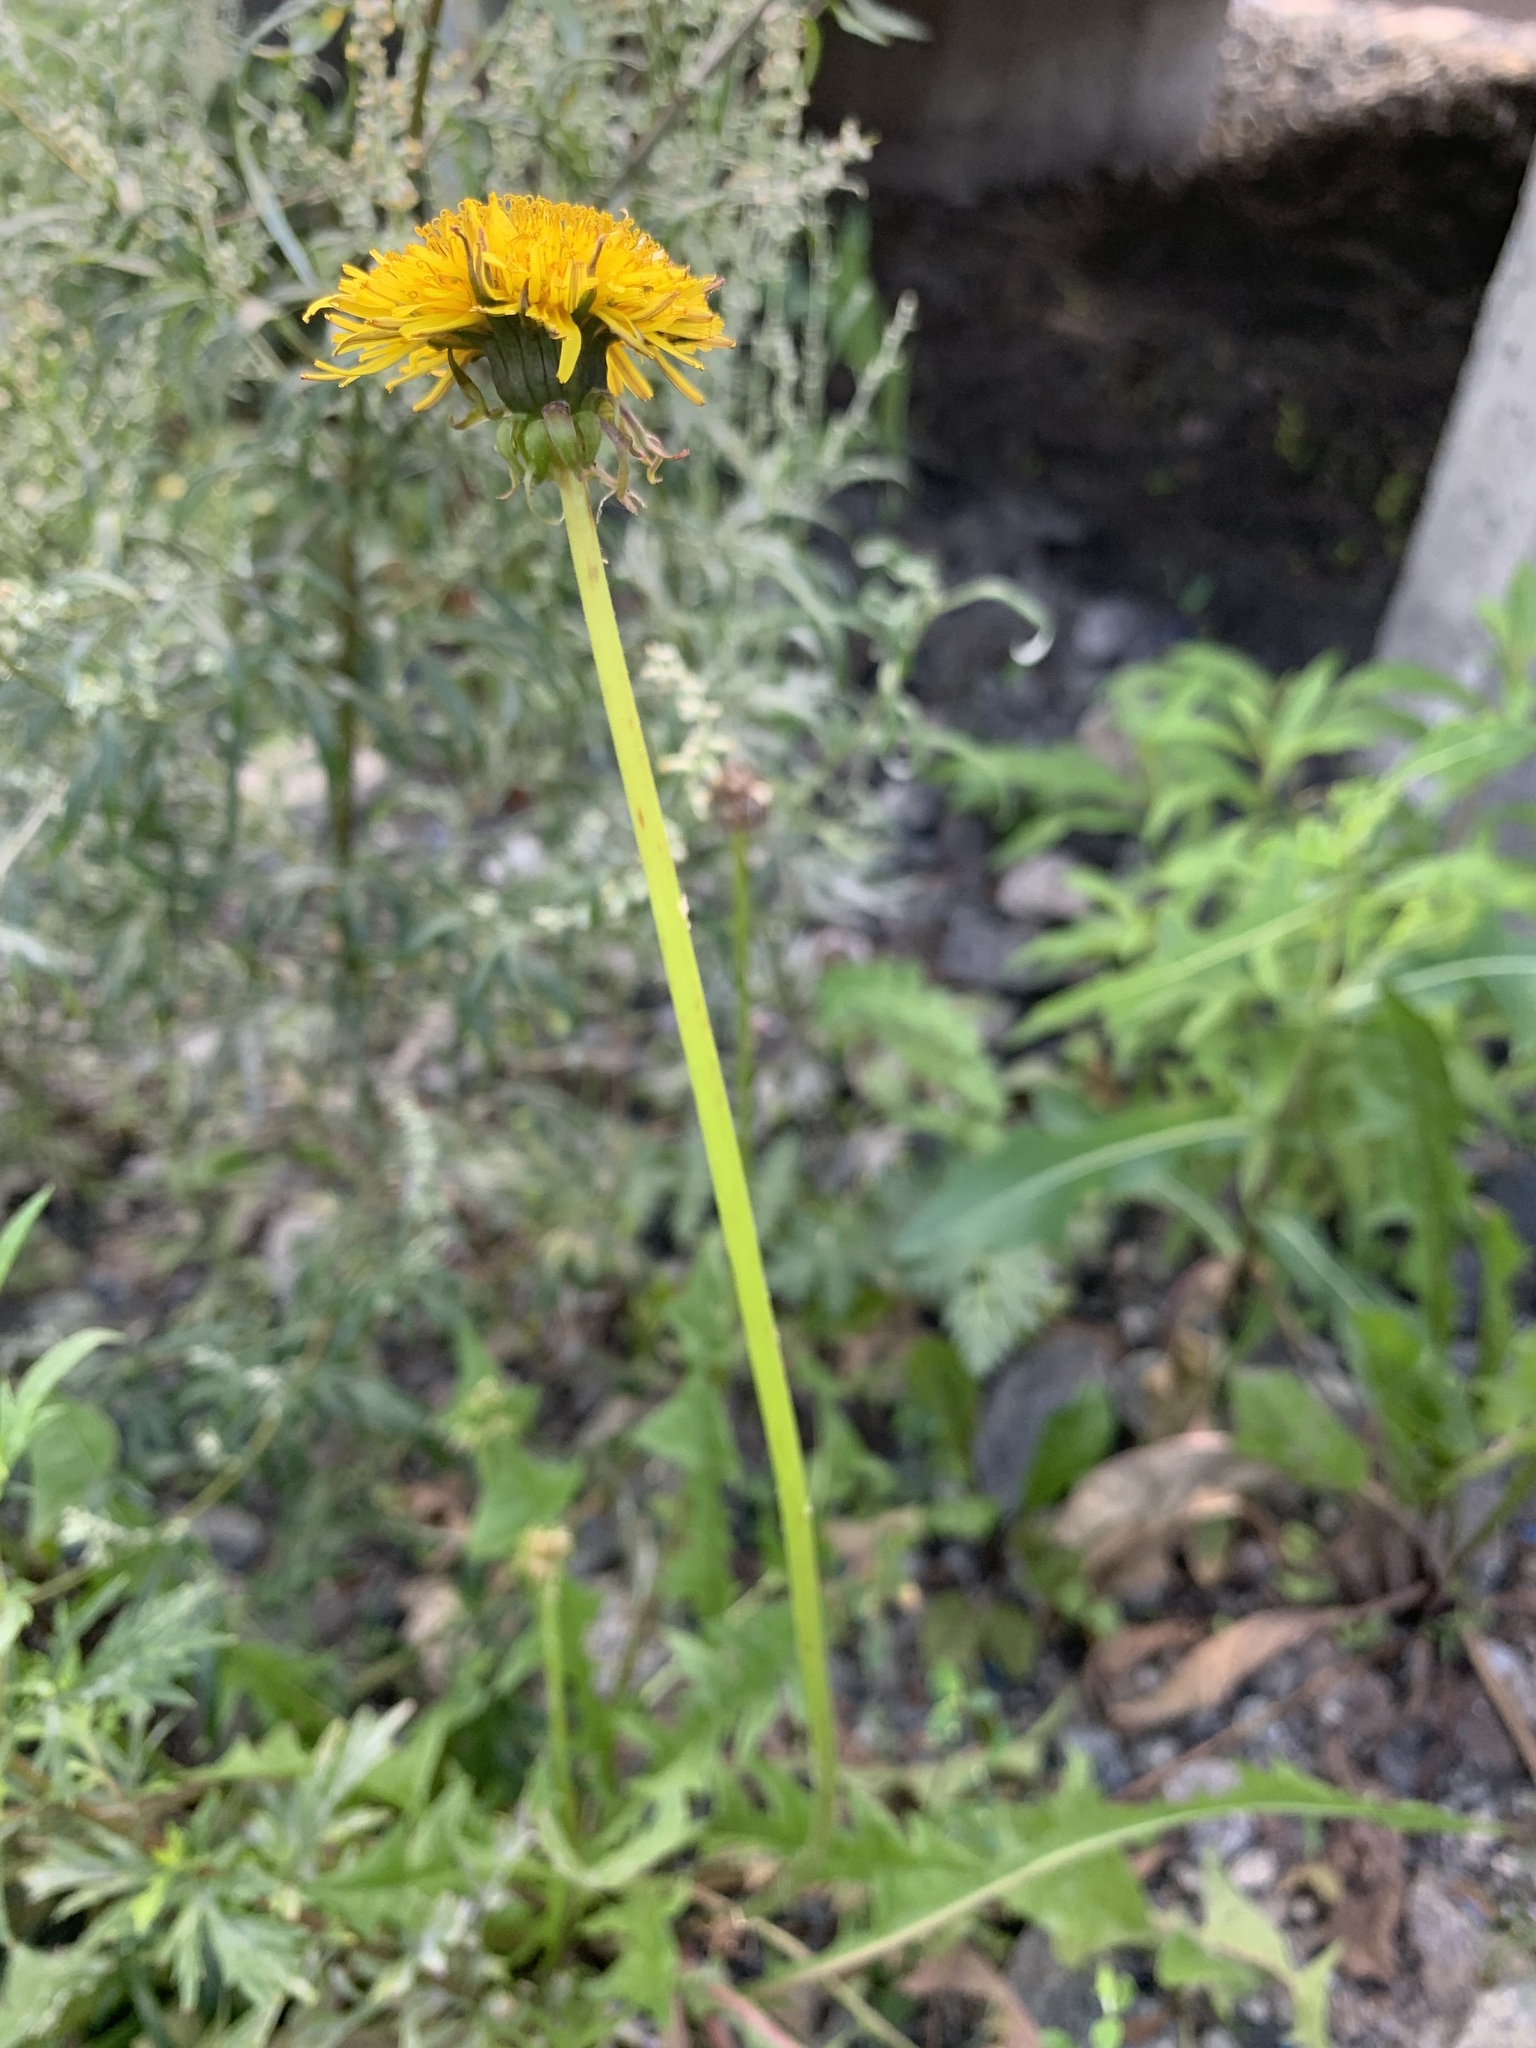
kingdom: Plantae
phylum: Tracheophyta
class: Magnoliopsida
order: Asterales
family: Asteraceae
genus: Taraxacum
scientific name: Taraxacum officinale
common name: Common dandelion
